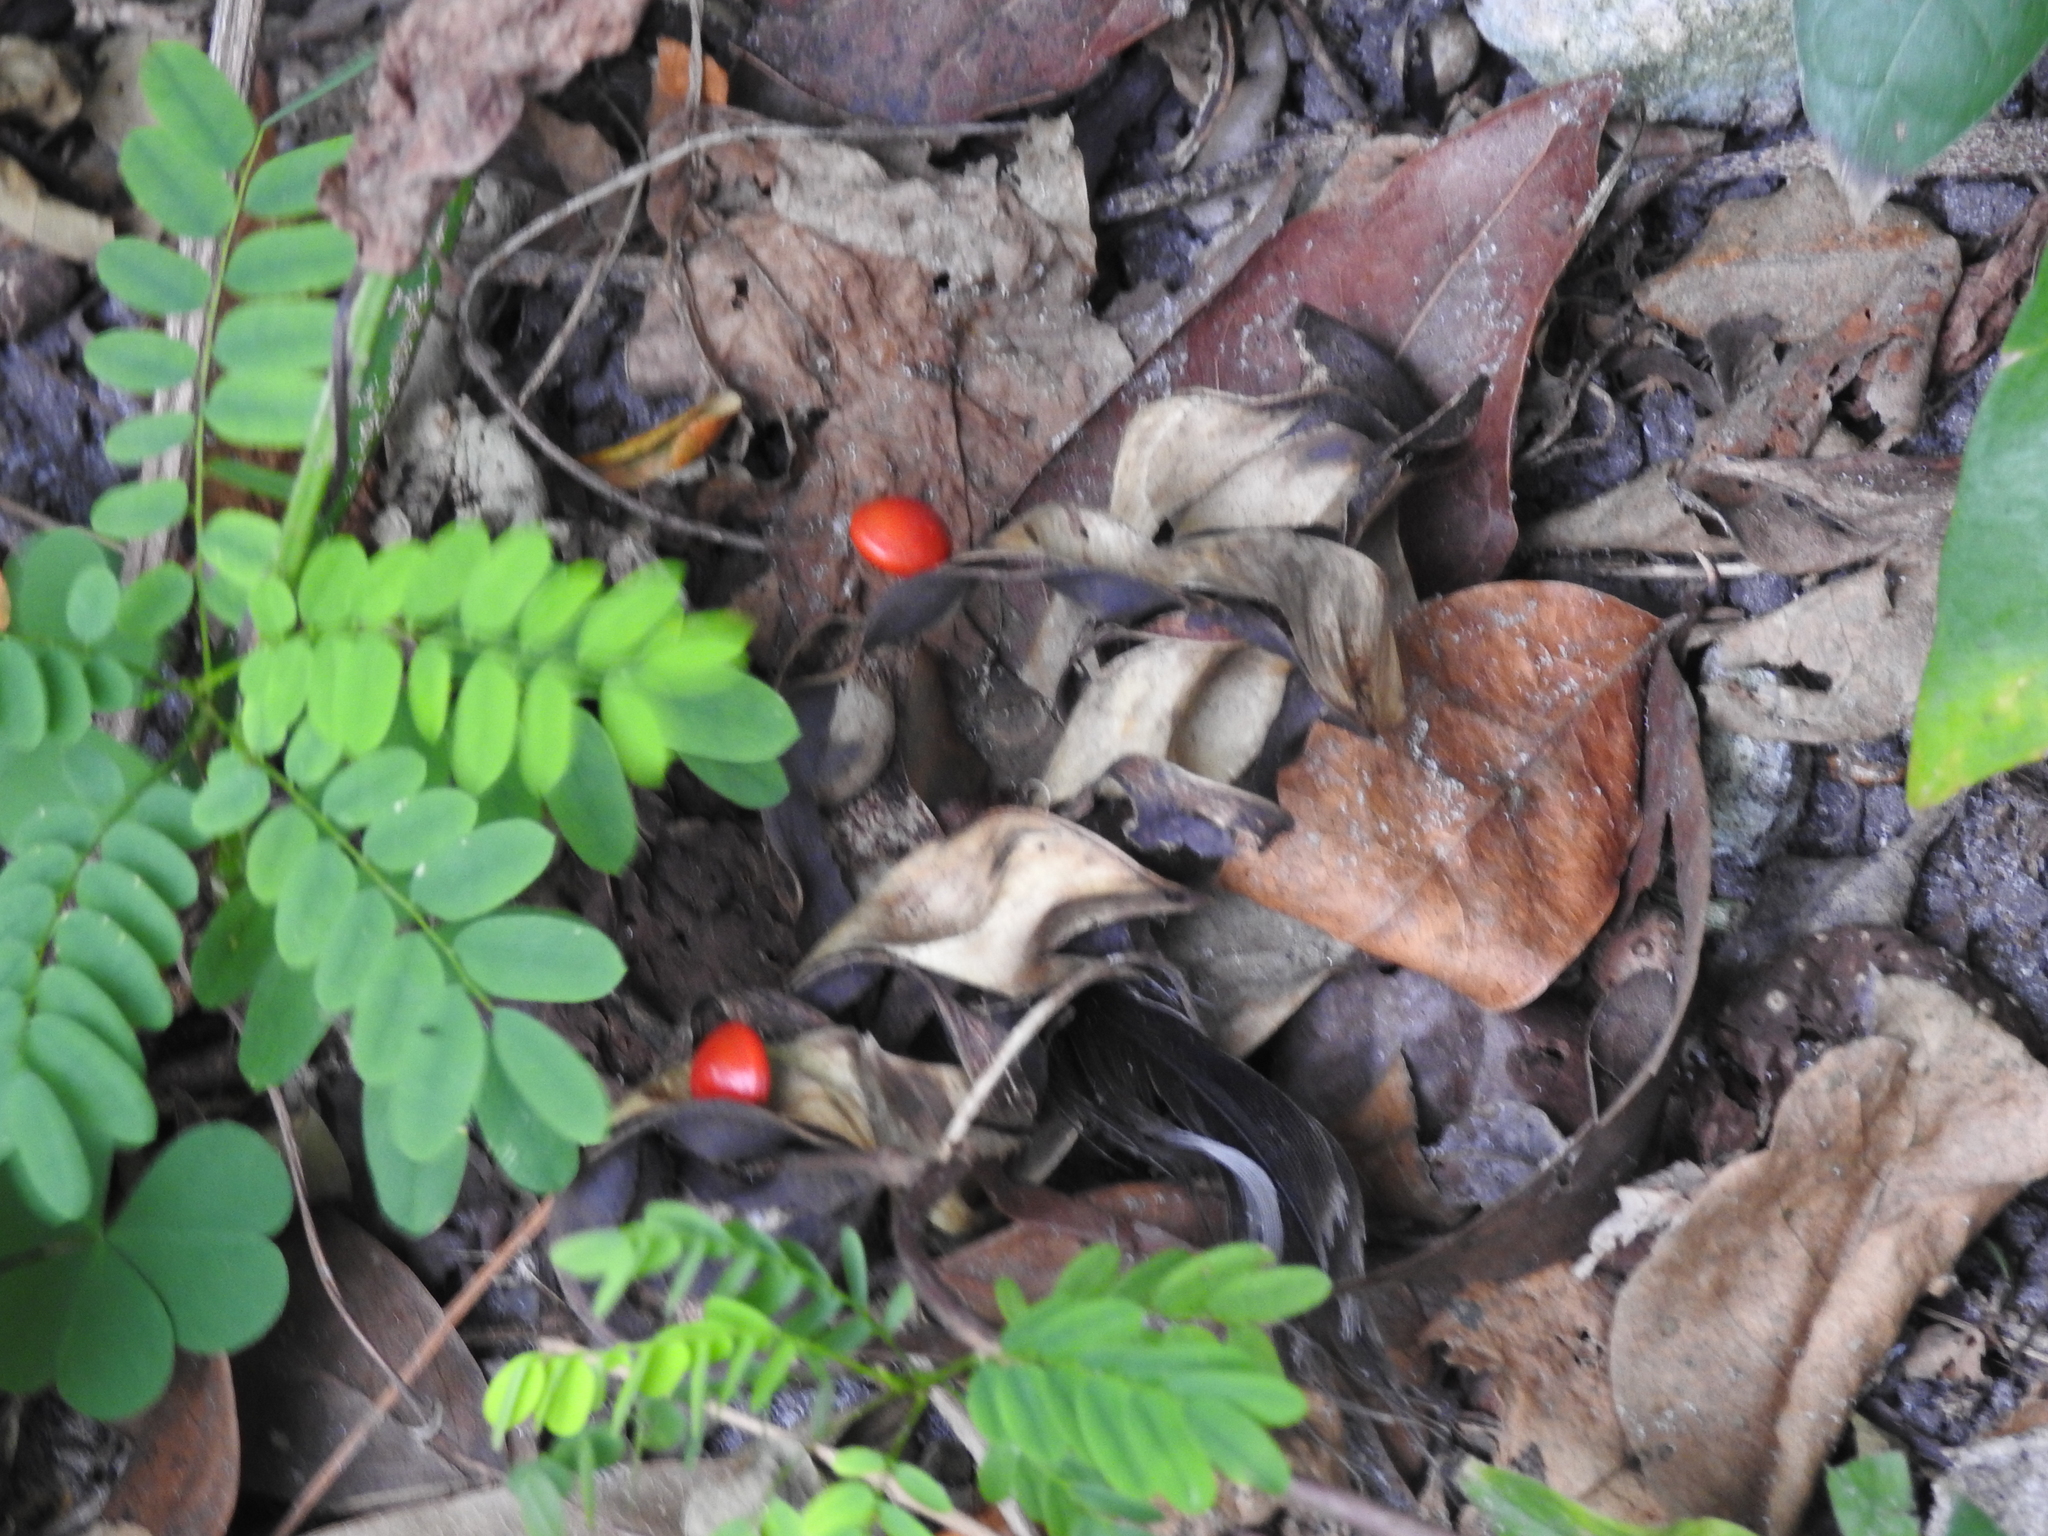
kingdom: Plantae
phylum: Tracheophyta
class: Magnoliopsida
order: Fabales
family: Fabaceae
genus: Abrus
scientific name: Abrus precatorius
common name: Rosarypea
